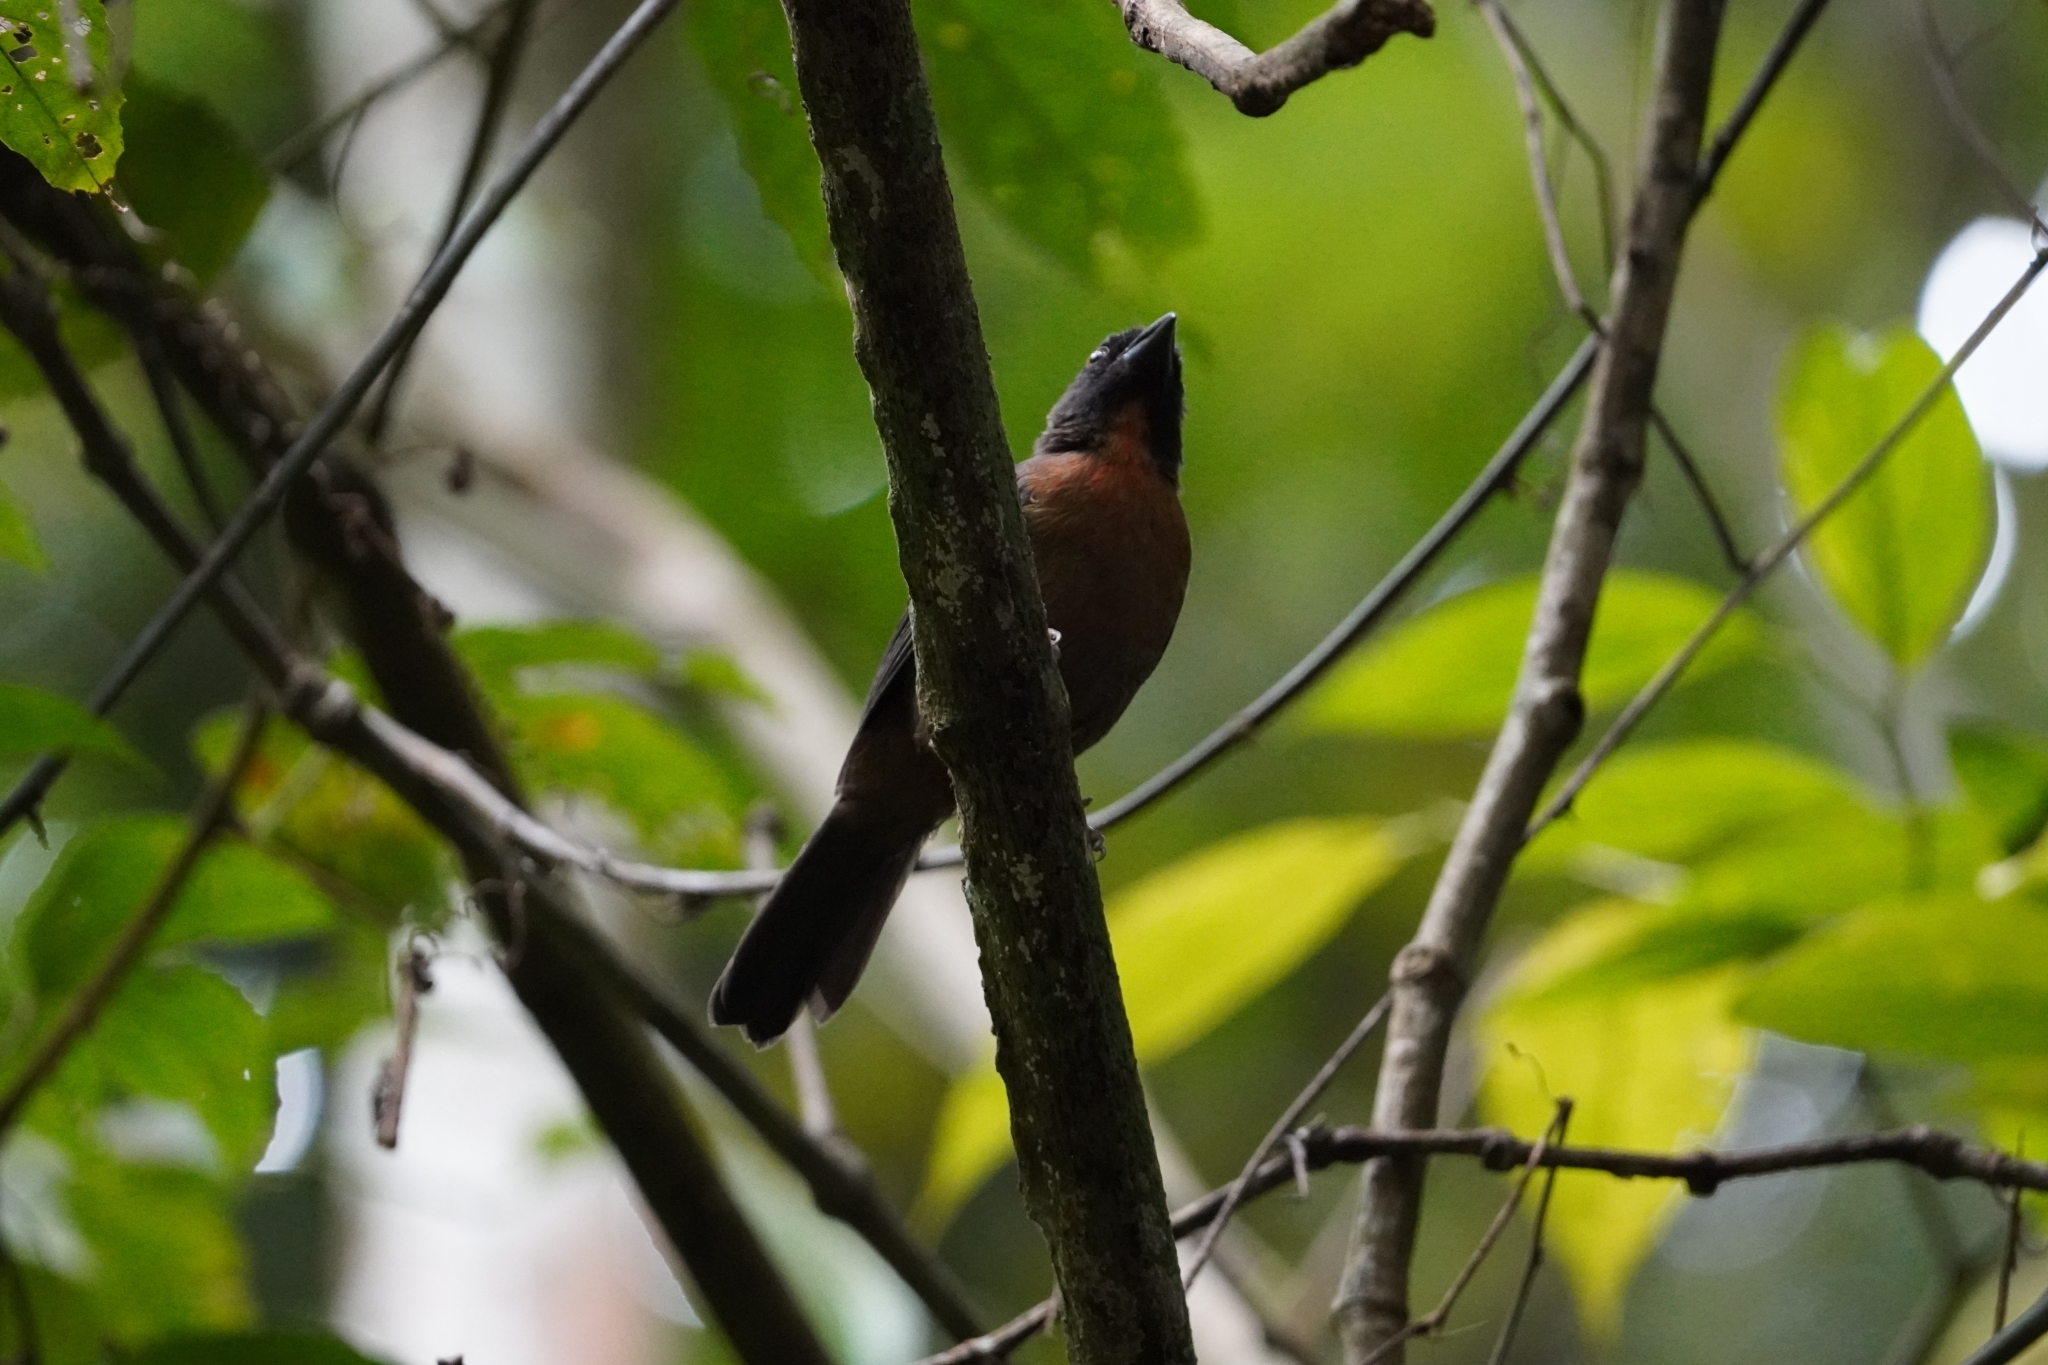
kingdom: Animalia
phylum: Chordata
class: Aves
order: Passeriformes
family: Cardinalidae
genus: Habia
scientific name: Habia atrimaxillaris
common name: Black-cheeked ant-tanager
